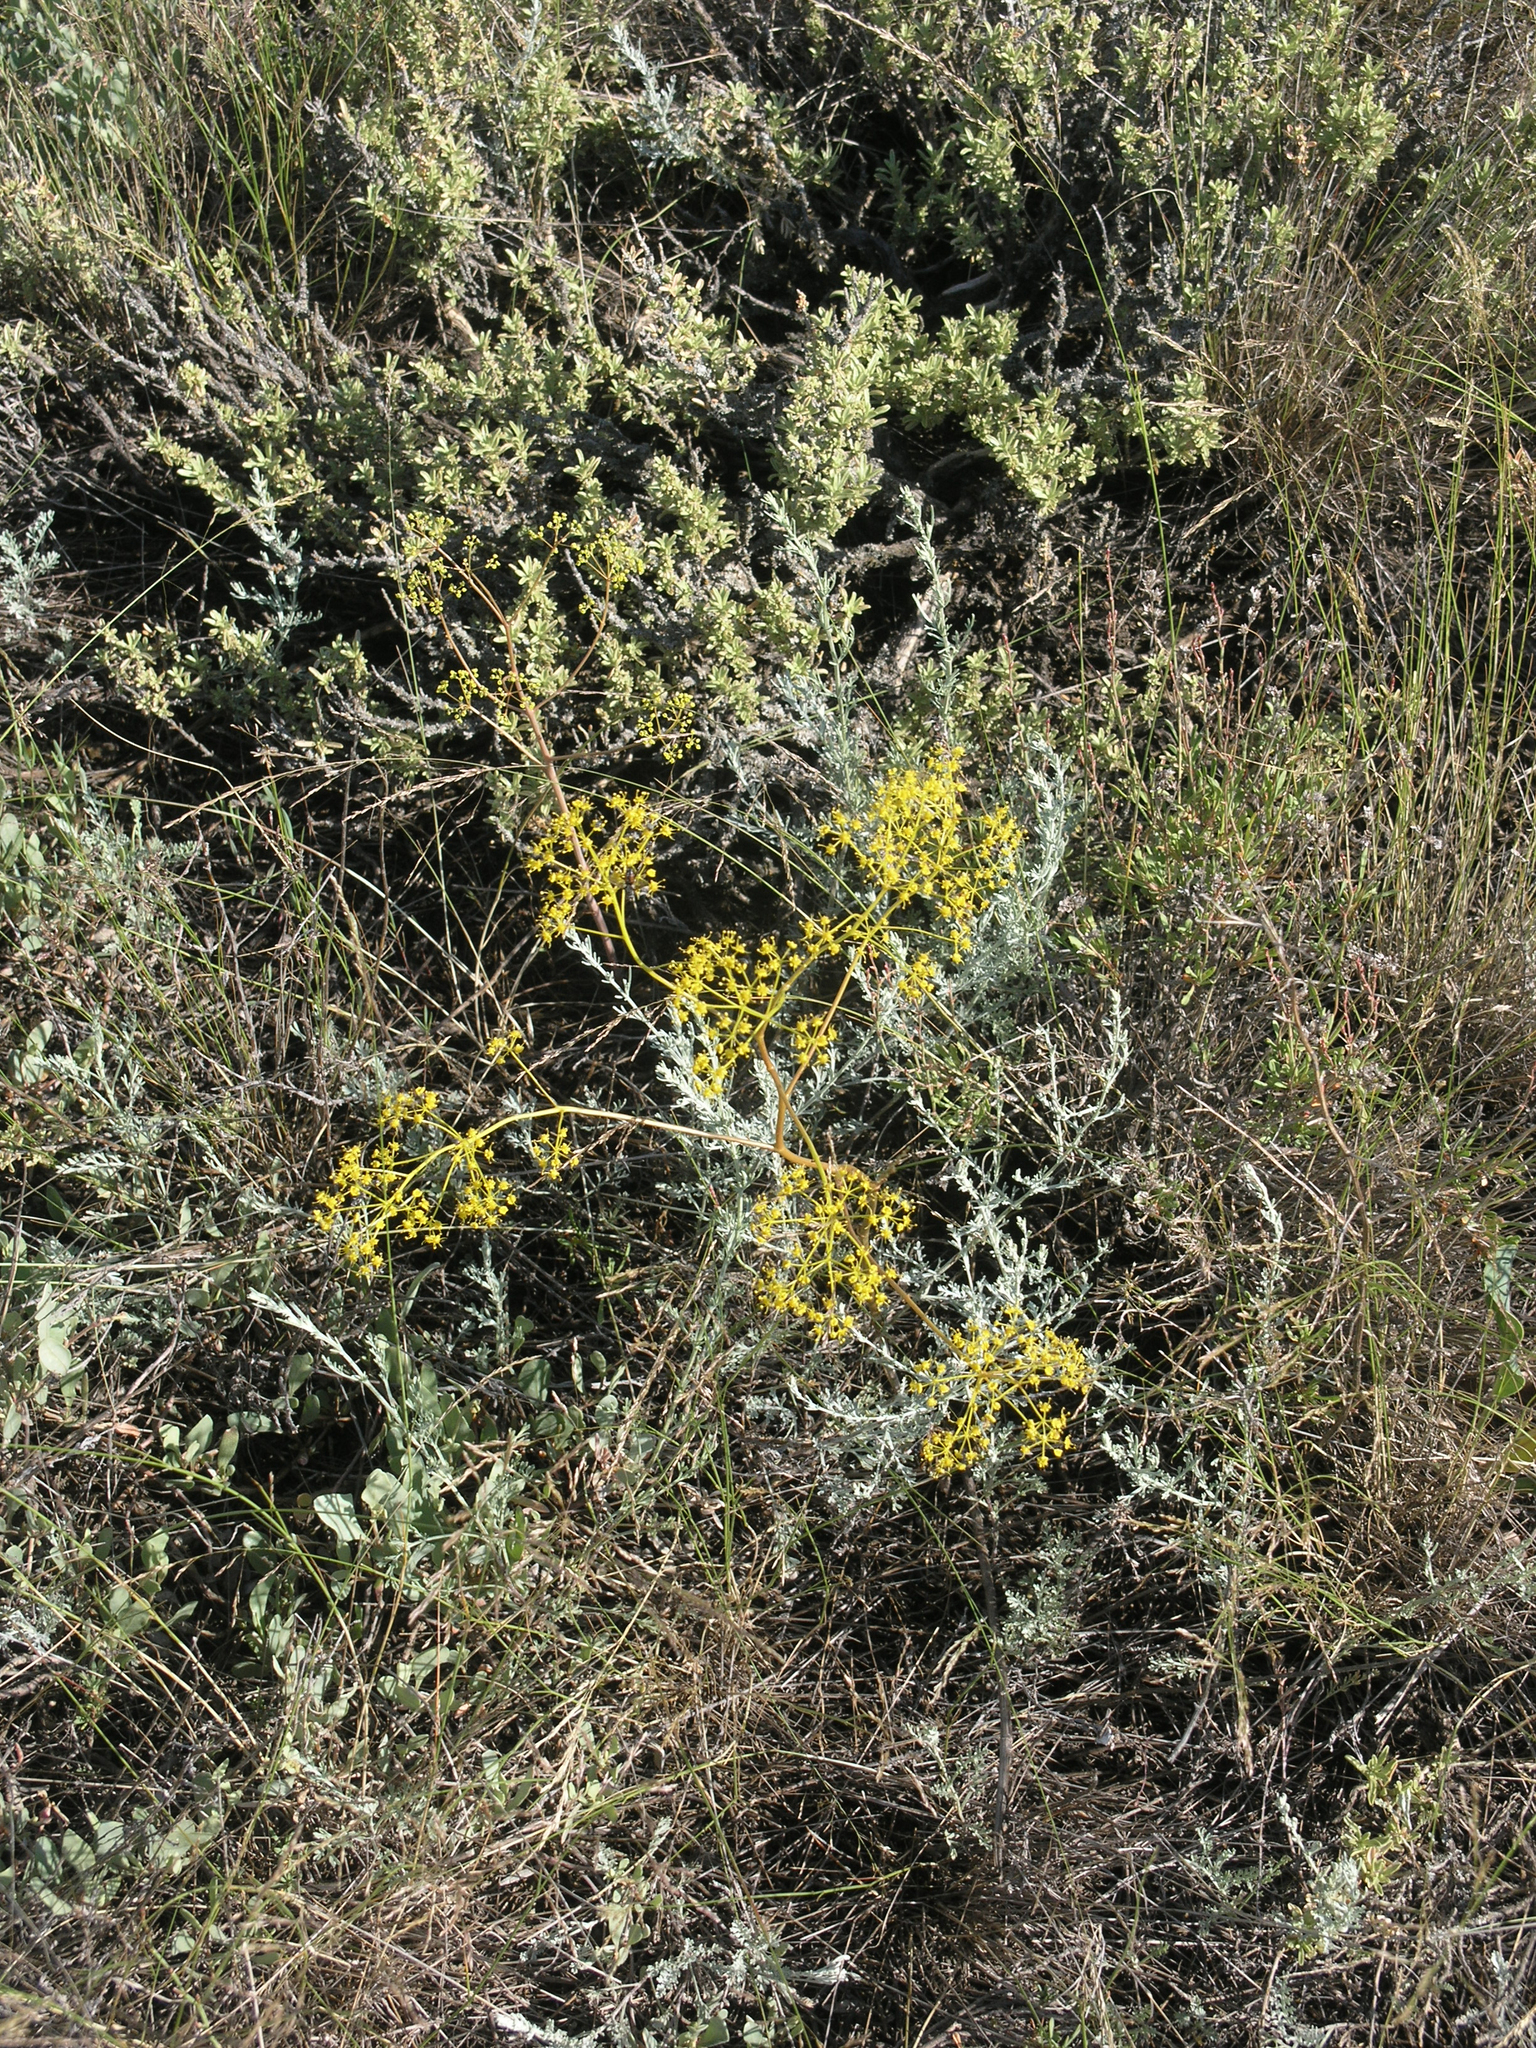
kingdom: Plantae
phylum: Tracheophyta
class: Magnoliopsida
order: Apiales
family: Apiaceae
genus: Ferula
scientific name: Ferula caspica
